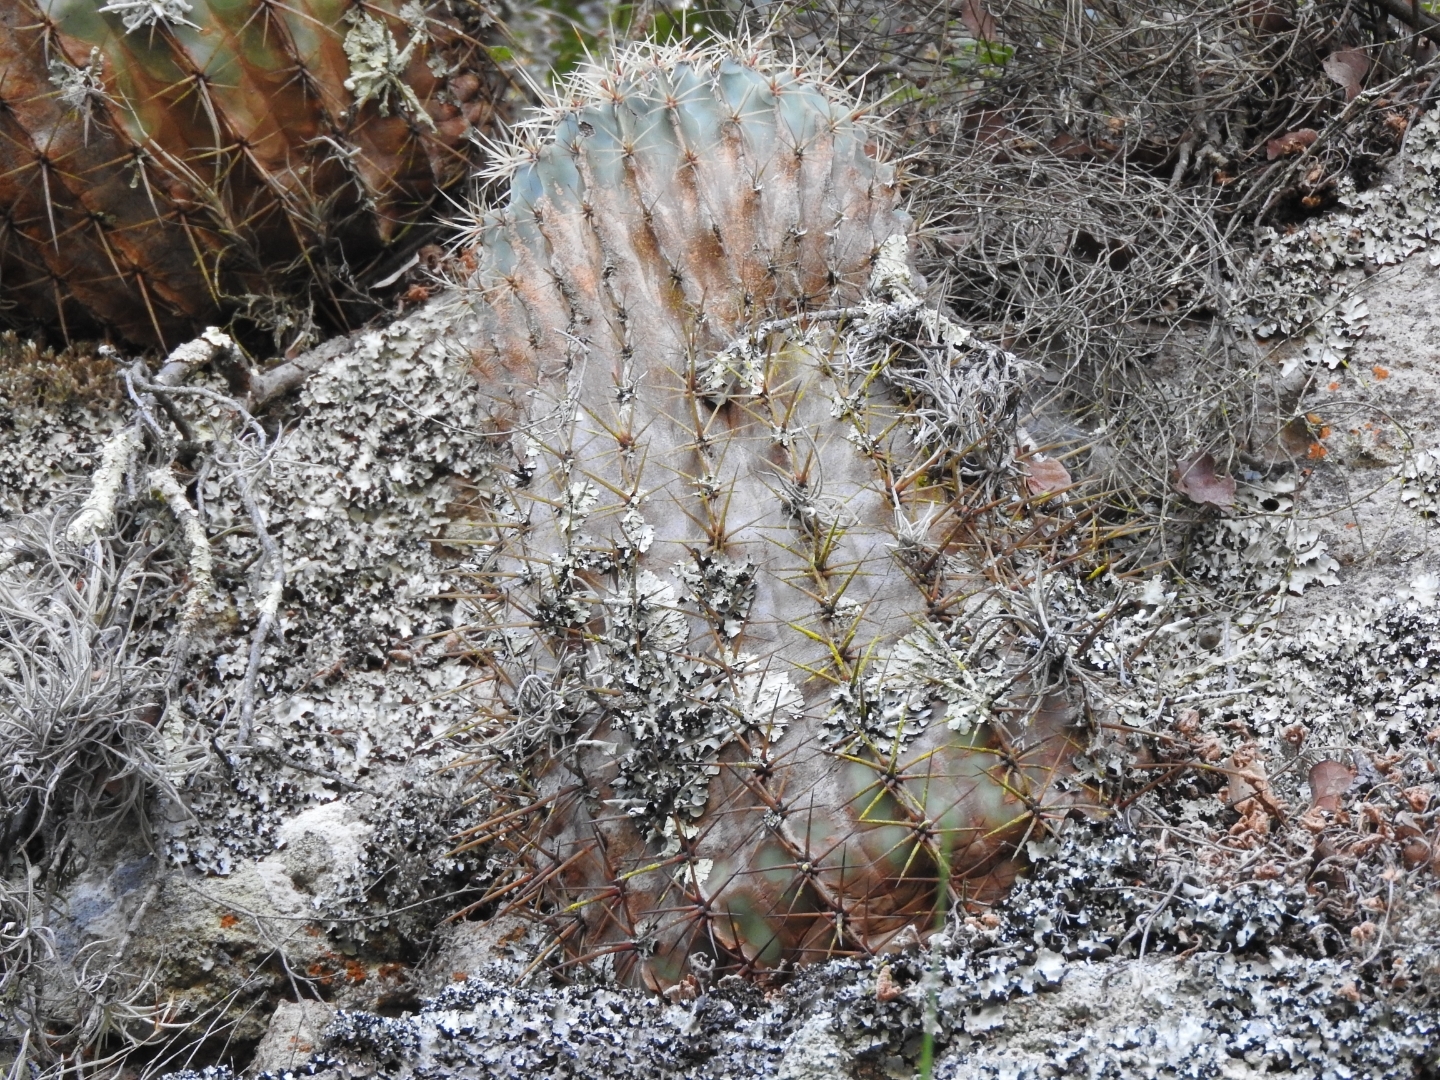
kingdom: Plantae
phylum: Tracheophyta
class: Magnoliopsida
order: Caryophyllales
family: Cactaceae
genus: Bisnaga
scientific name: Bisnaga histrix
